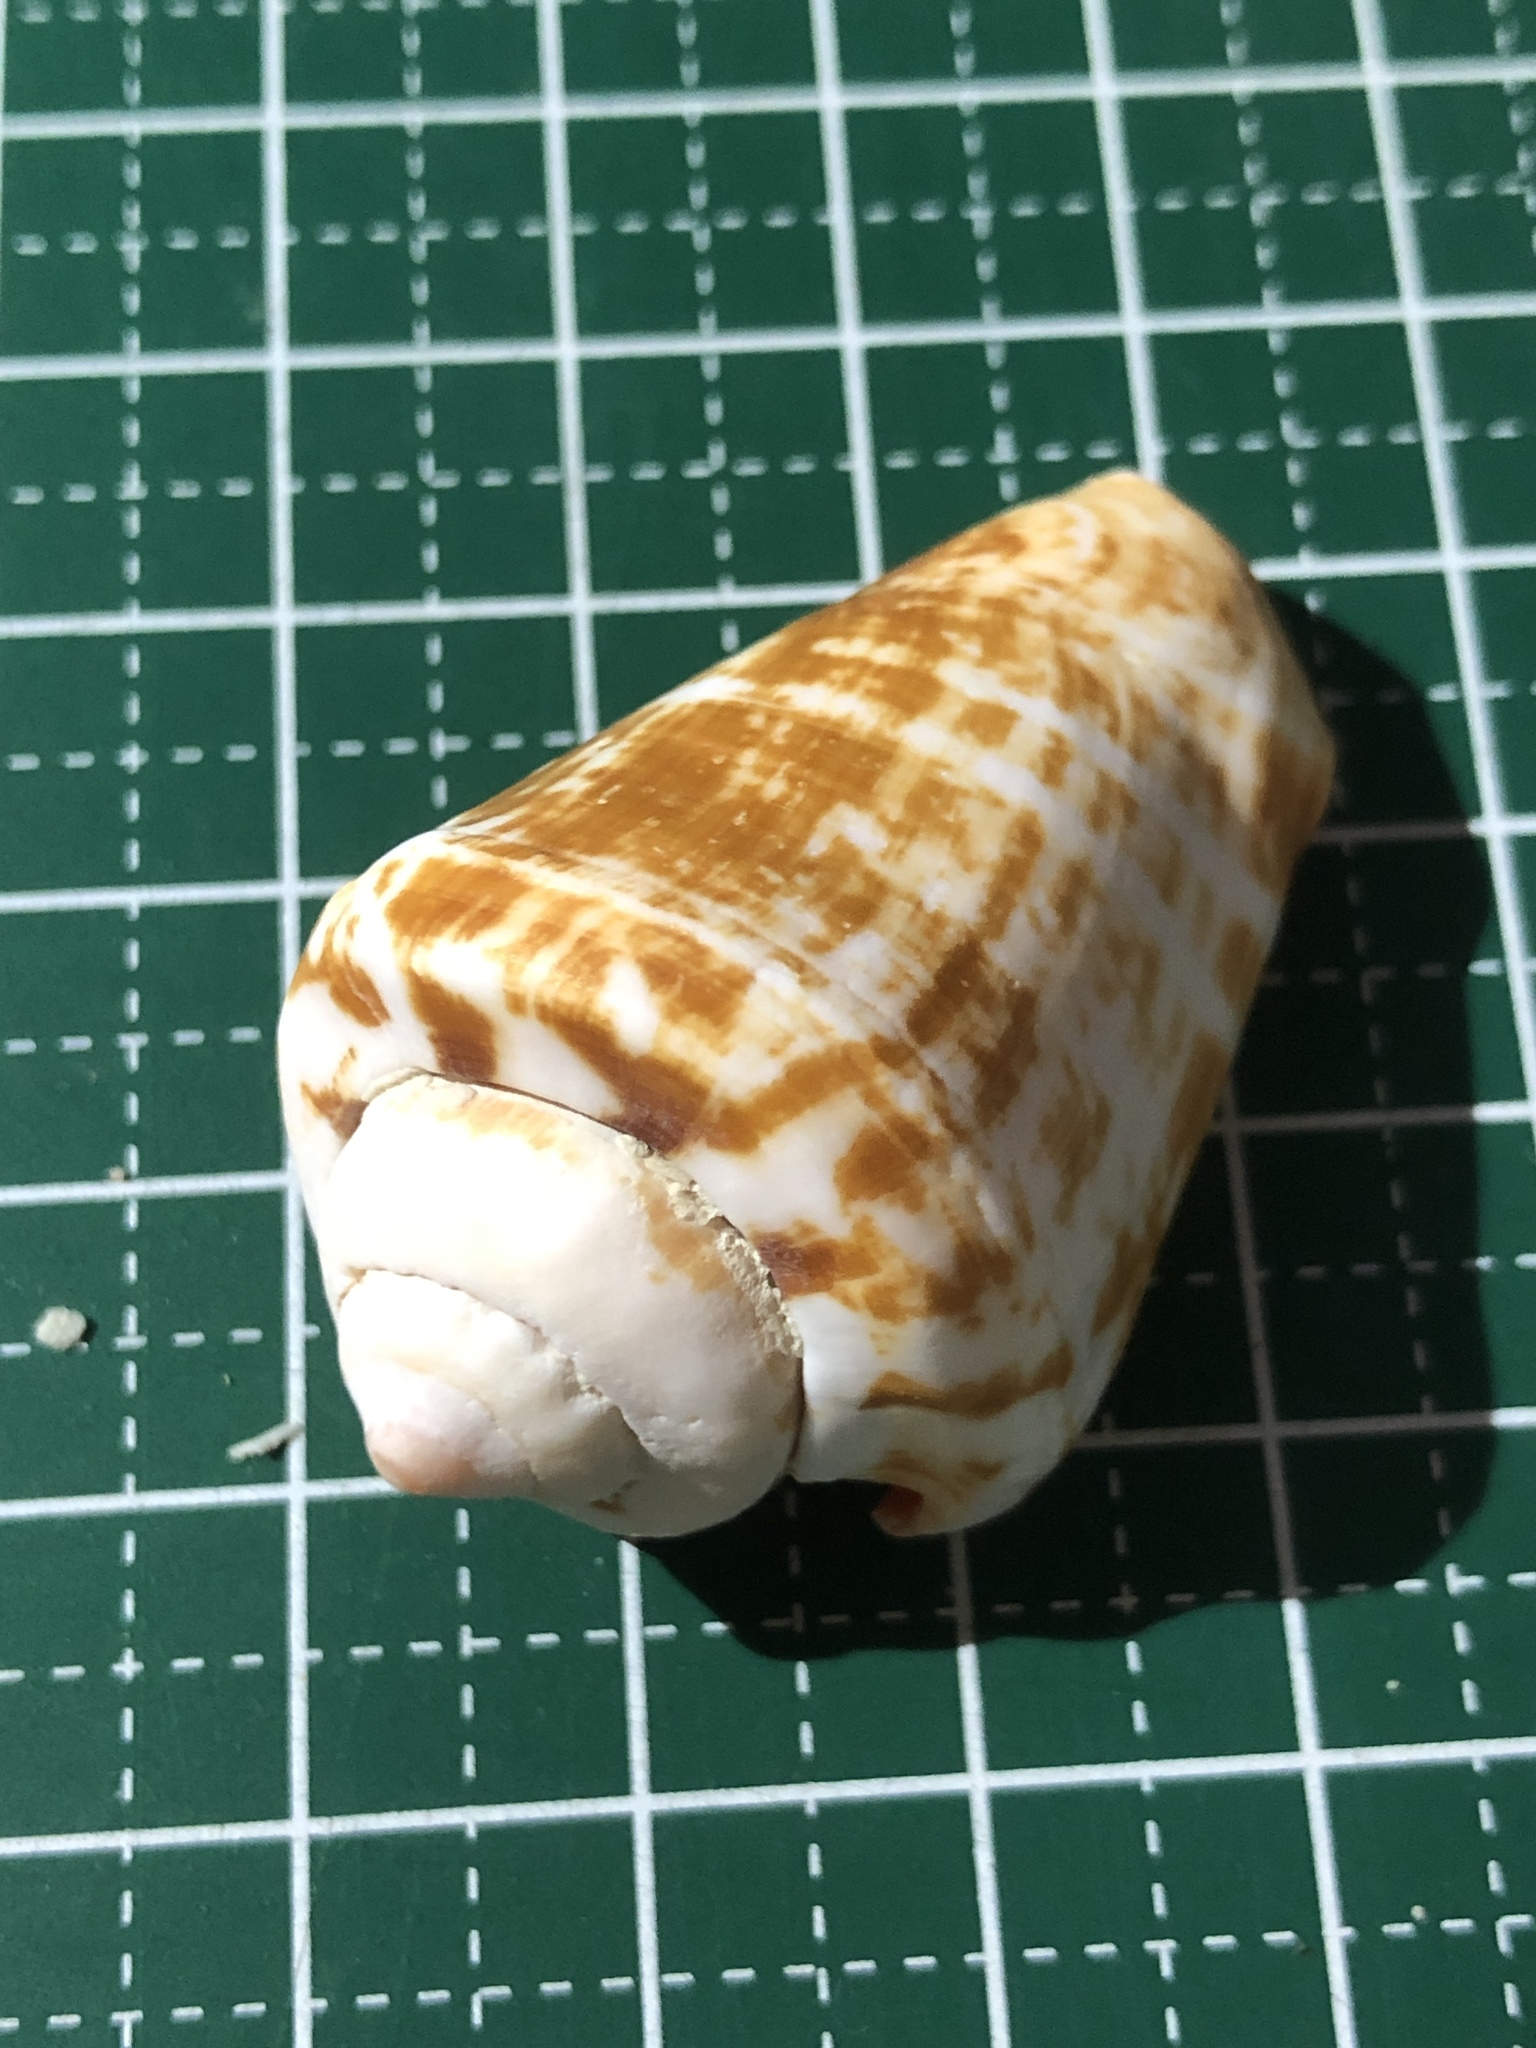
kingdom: Animalia
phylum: Mollusca
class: Gastropoda
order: Littorinimorpha
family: Strombidae
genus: Conomurex
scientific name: Conomurex luhuanus
